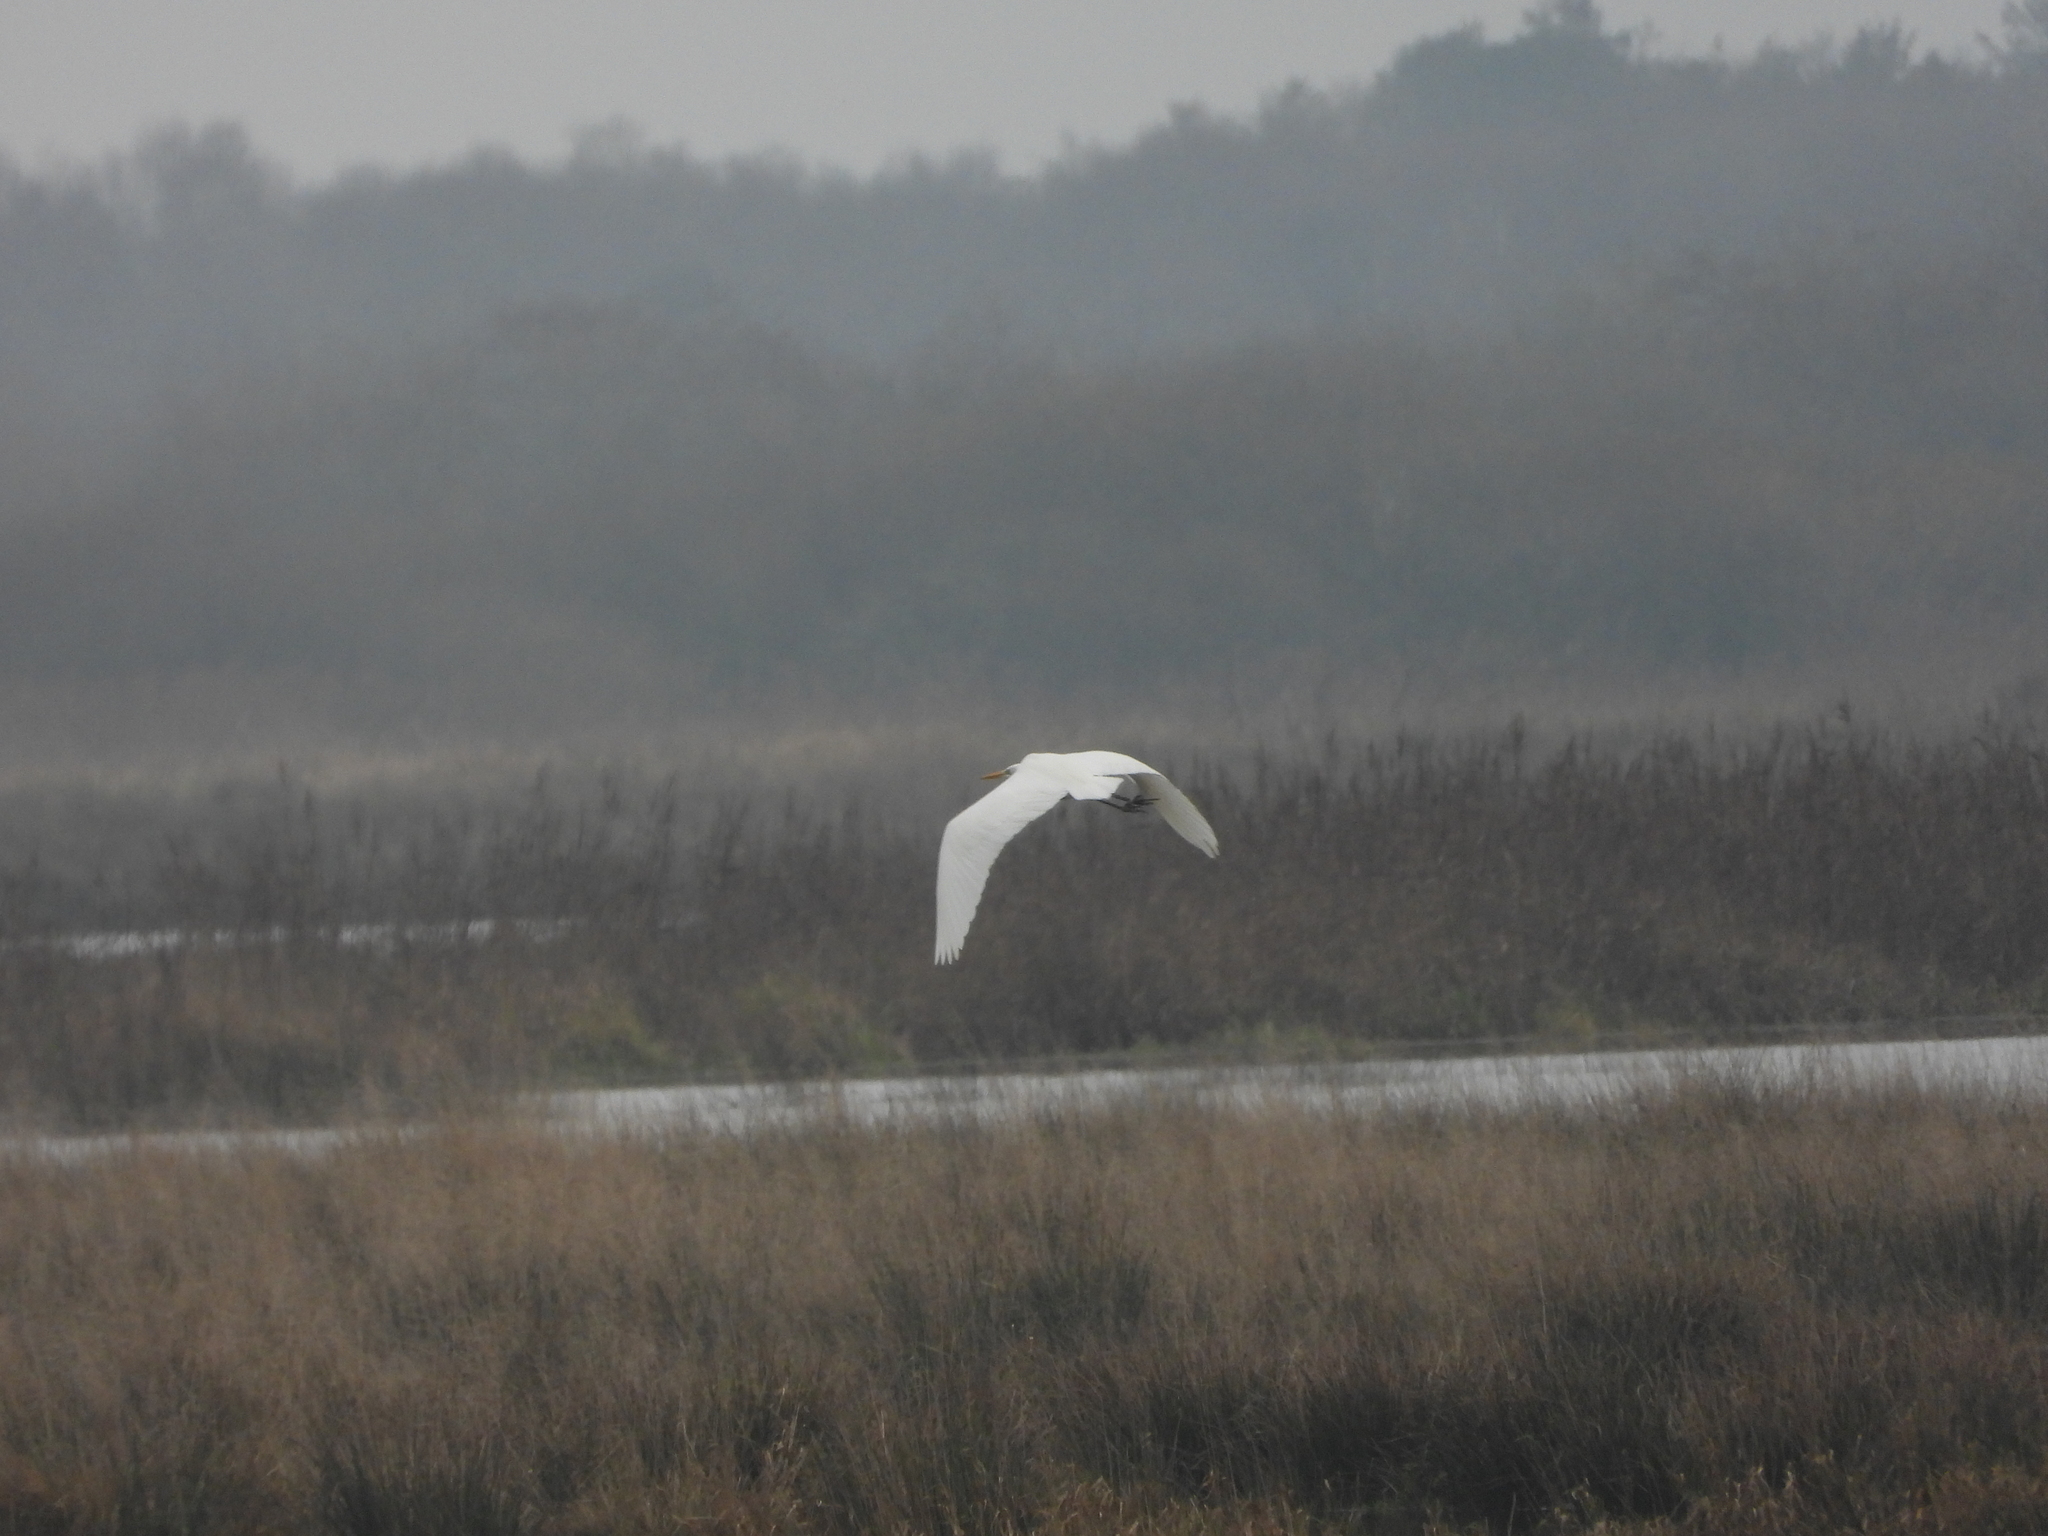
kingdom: Animalia
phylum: Chordata
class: Aves
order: Pelecaniformes
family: Ardeidae
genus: Ardea
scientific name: Ardea alba
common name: Great egret
